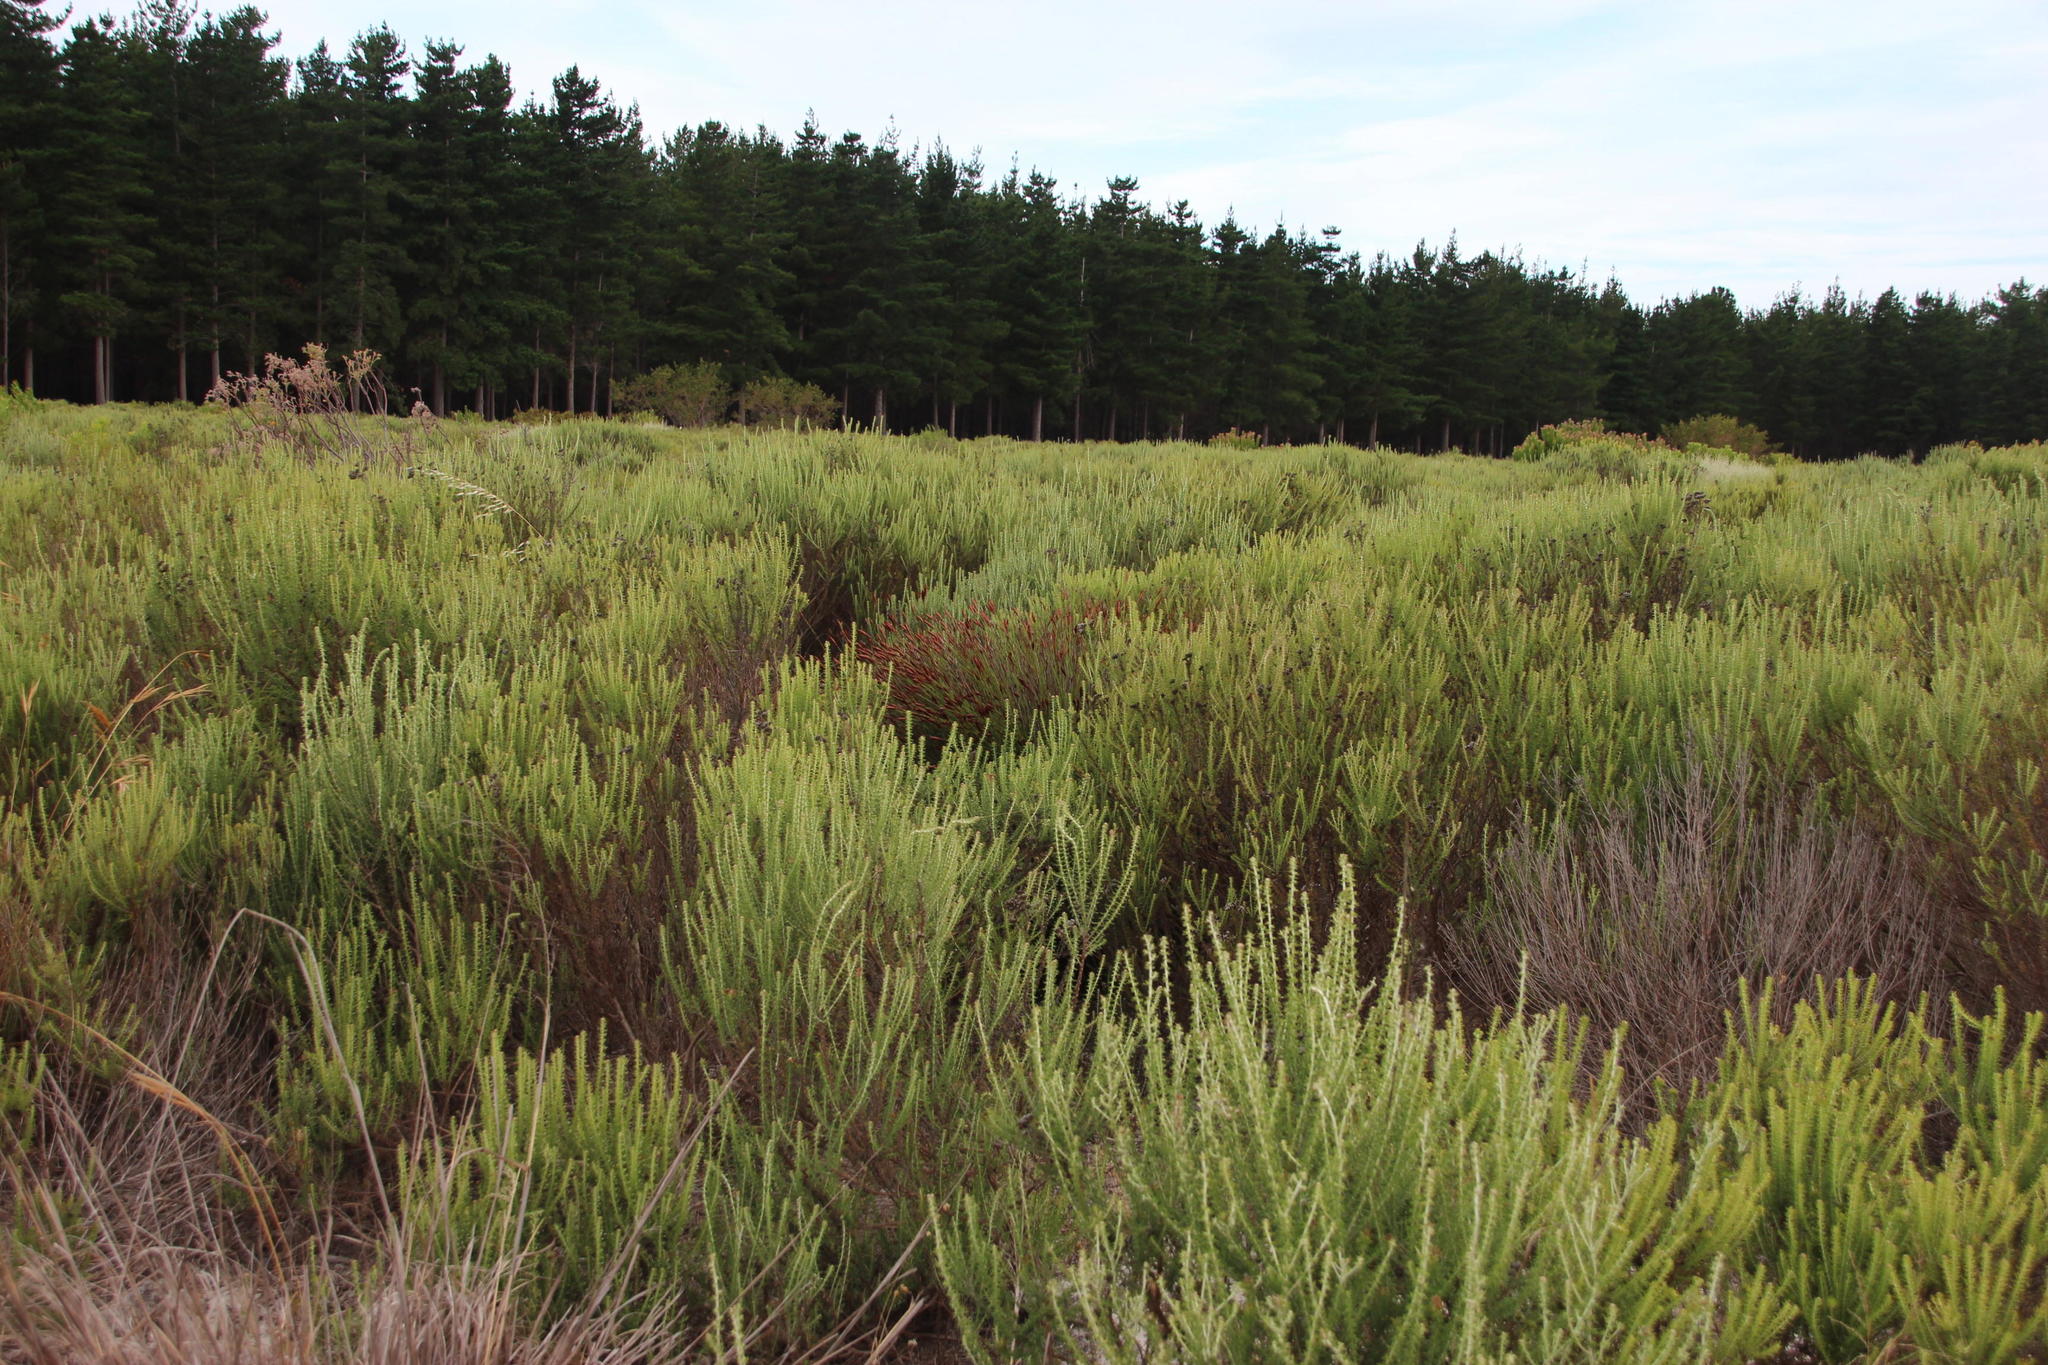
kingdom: Plantae
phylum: Tracheophyta
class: Liliopsida
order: Poales
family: Restionaceae
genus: Staberoha
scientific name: Staberoha distachyos
